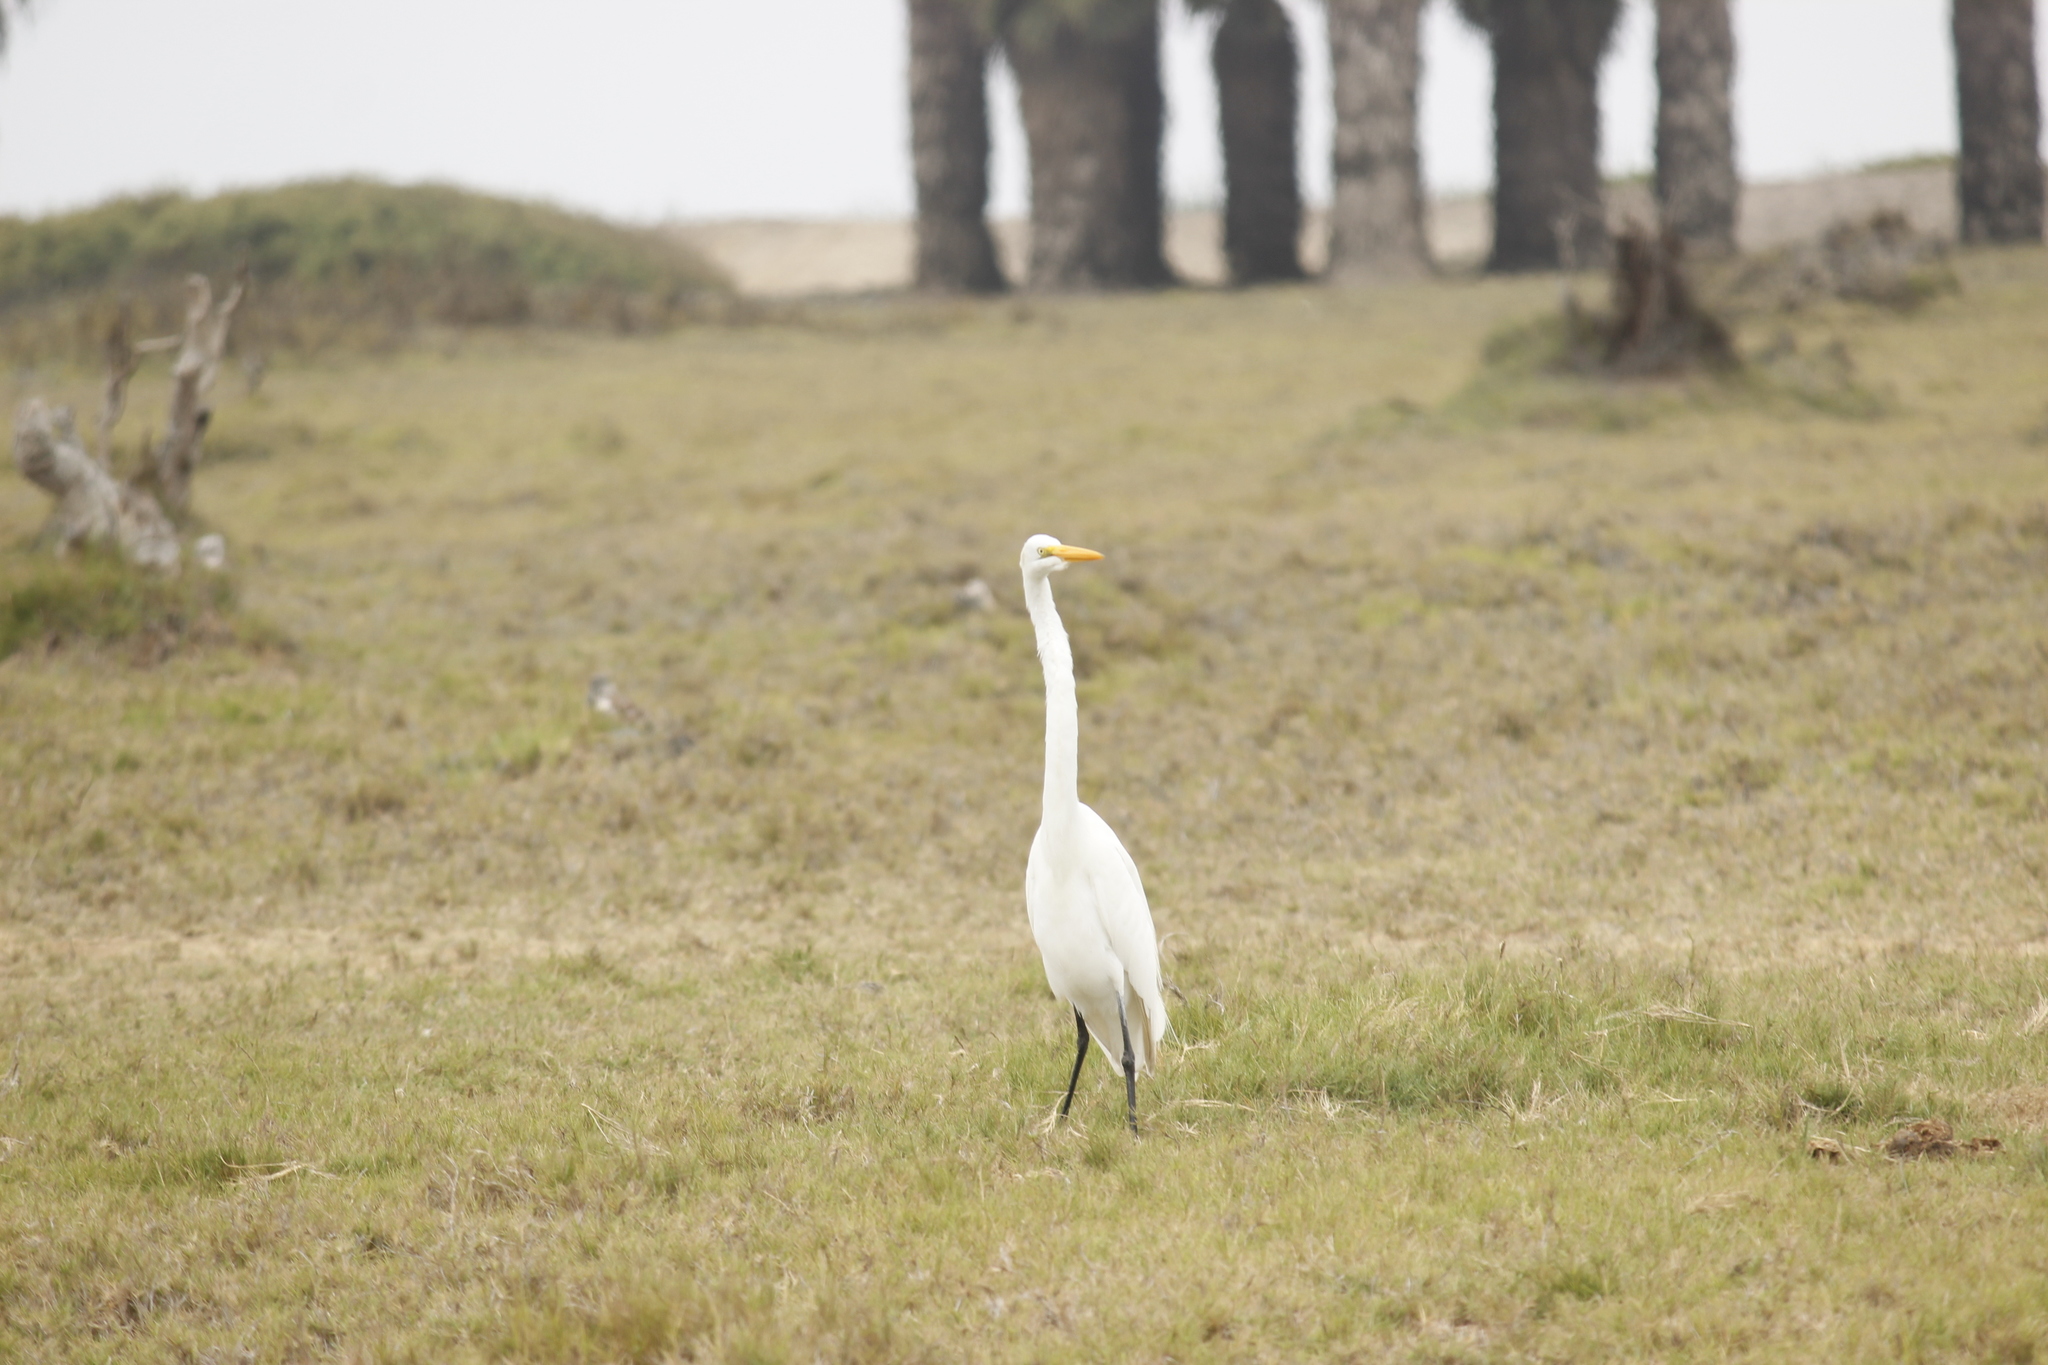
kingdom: Animalia
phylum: Chordata
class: Aves
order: Pelecaniformes
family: Ardeidae
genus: Ardea
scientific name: Ardea alba
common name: Great egret
